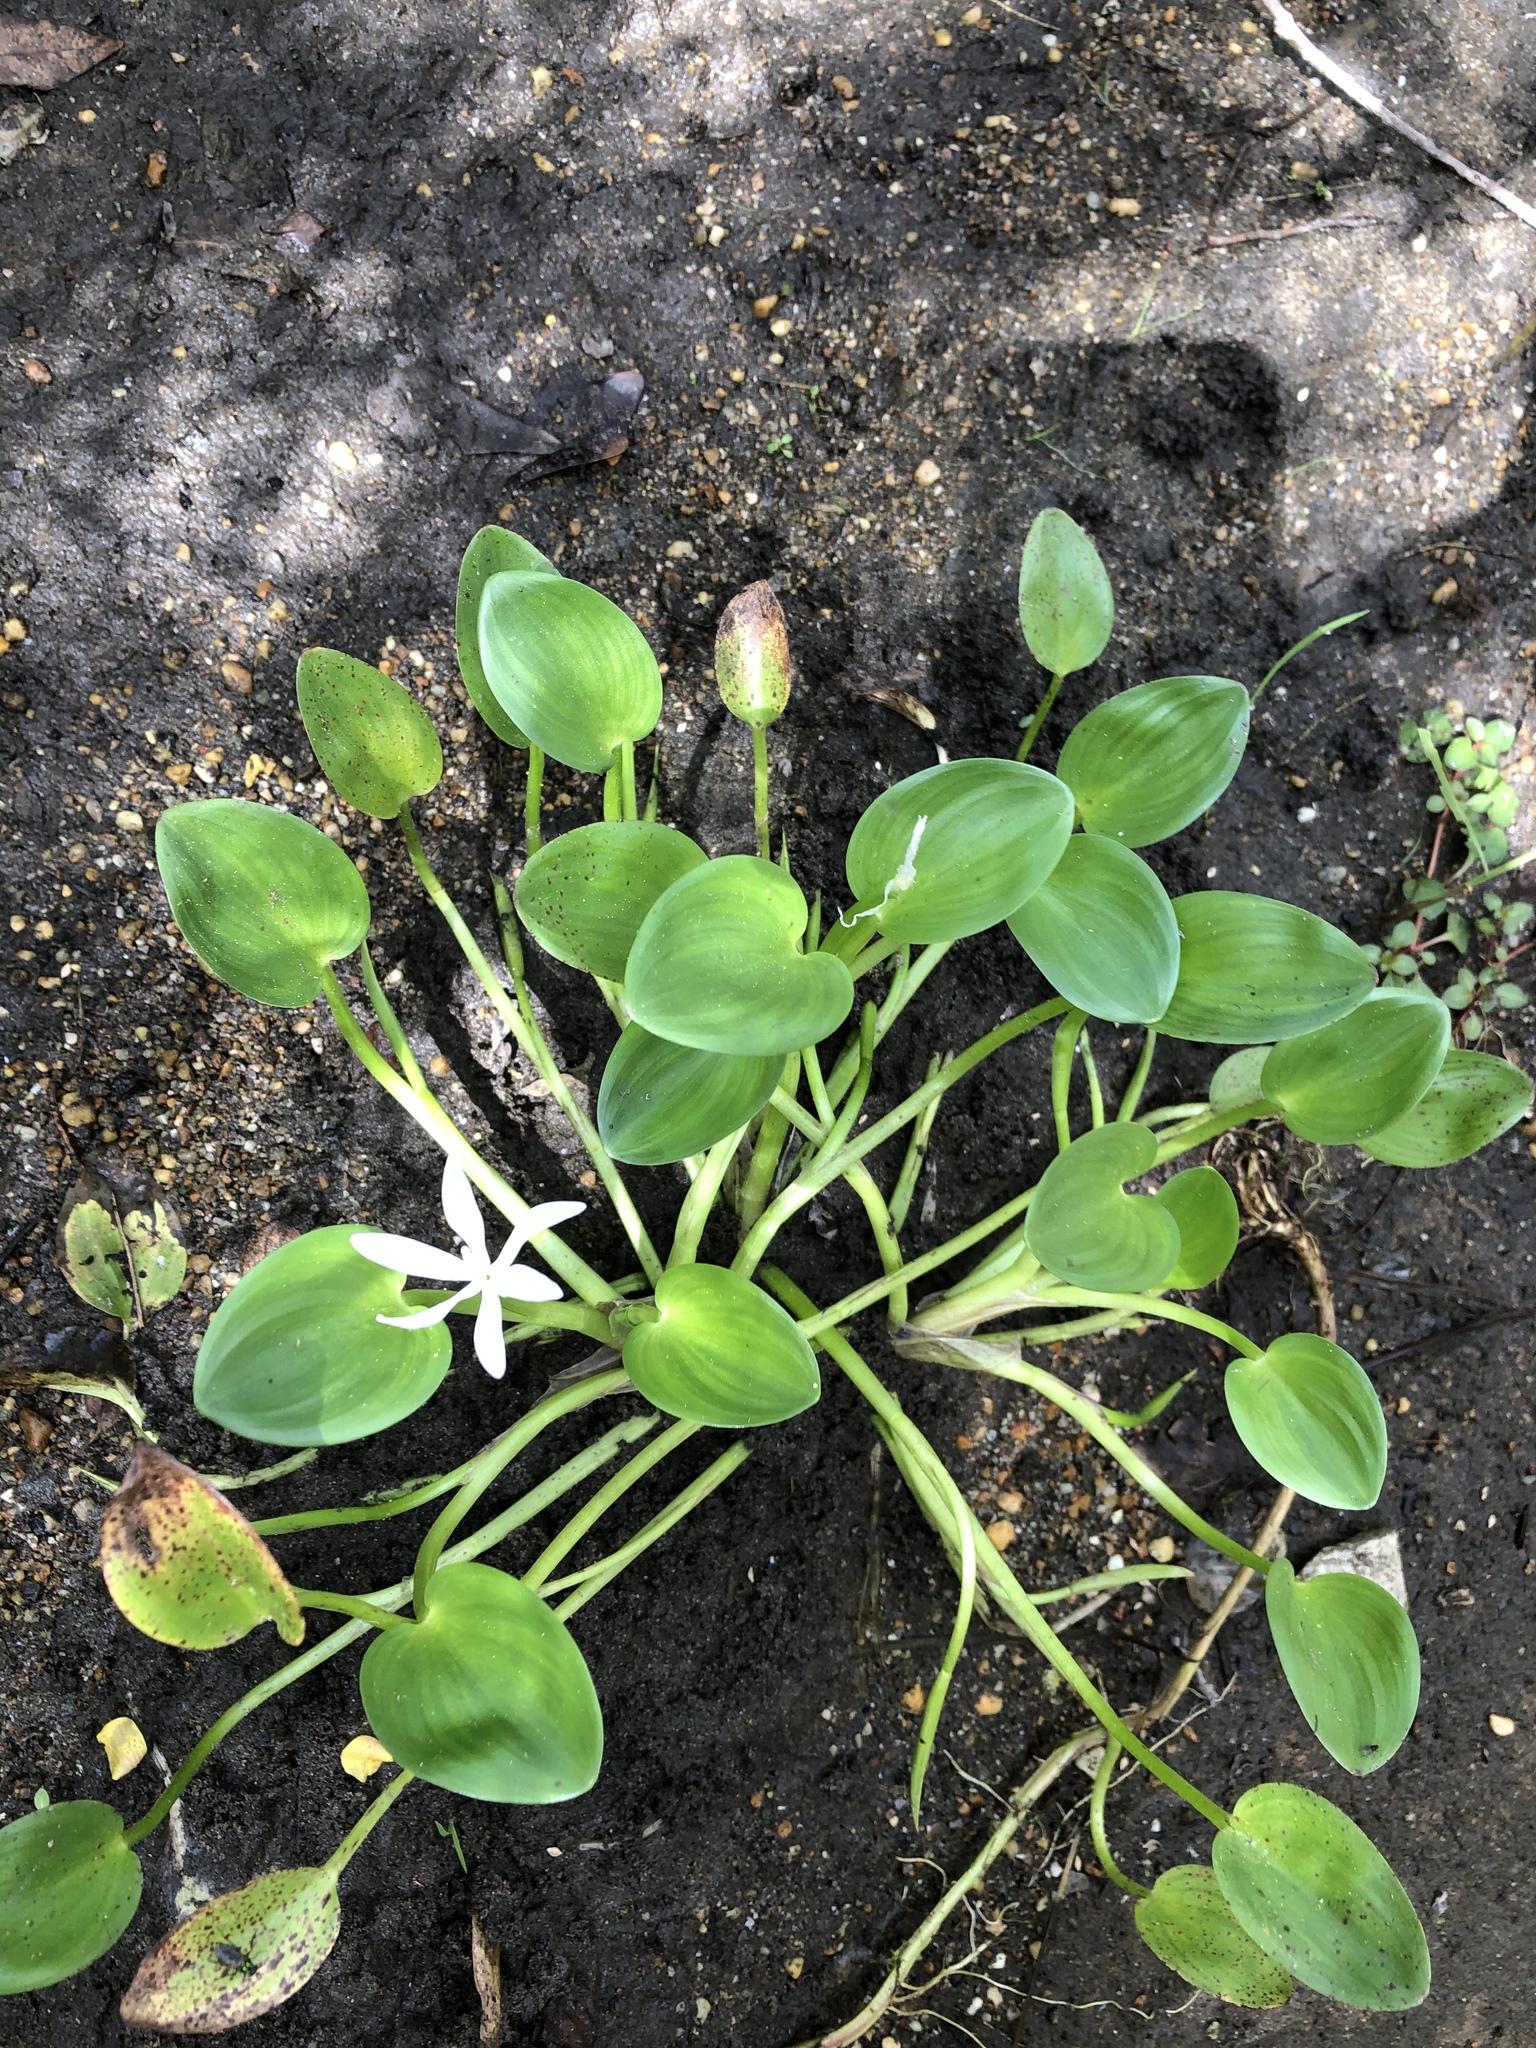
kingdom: Plantae
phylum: Tracheophyta
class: Liliopsida
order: Commelinales
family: Pontederiaceae
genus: Heteranthera
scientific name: Heteranthera limosa
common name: Blue mud-plantain
